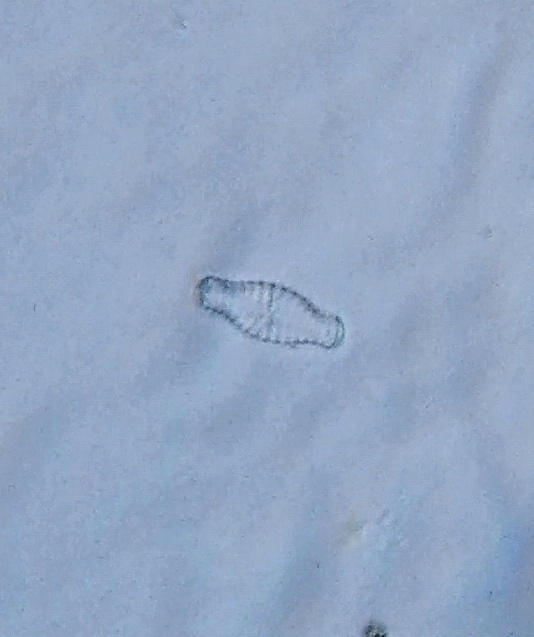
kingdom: Chromista
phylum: Ochrophyta
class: Bacillariophyceae
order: Naviculales
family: Naviculaceae
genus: Hippodonta
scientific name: Hippodonta capitata
